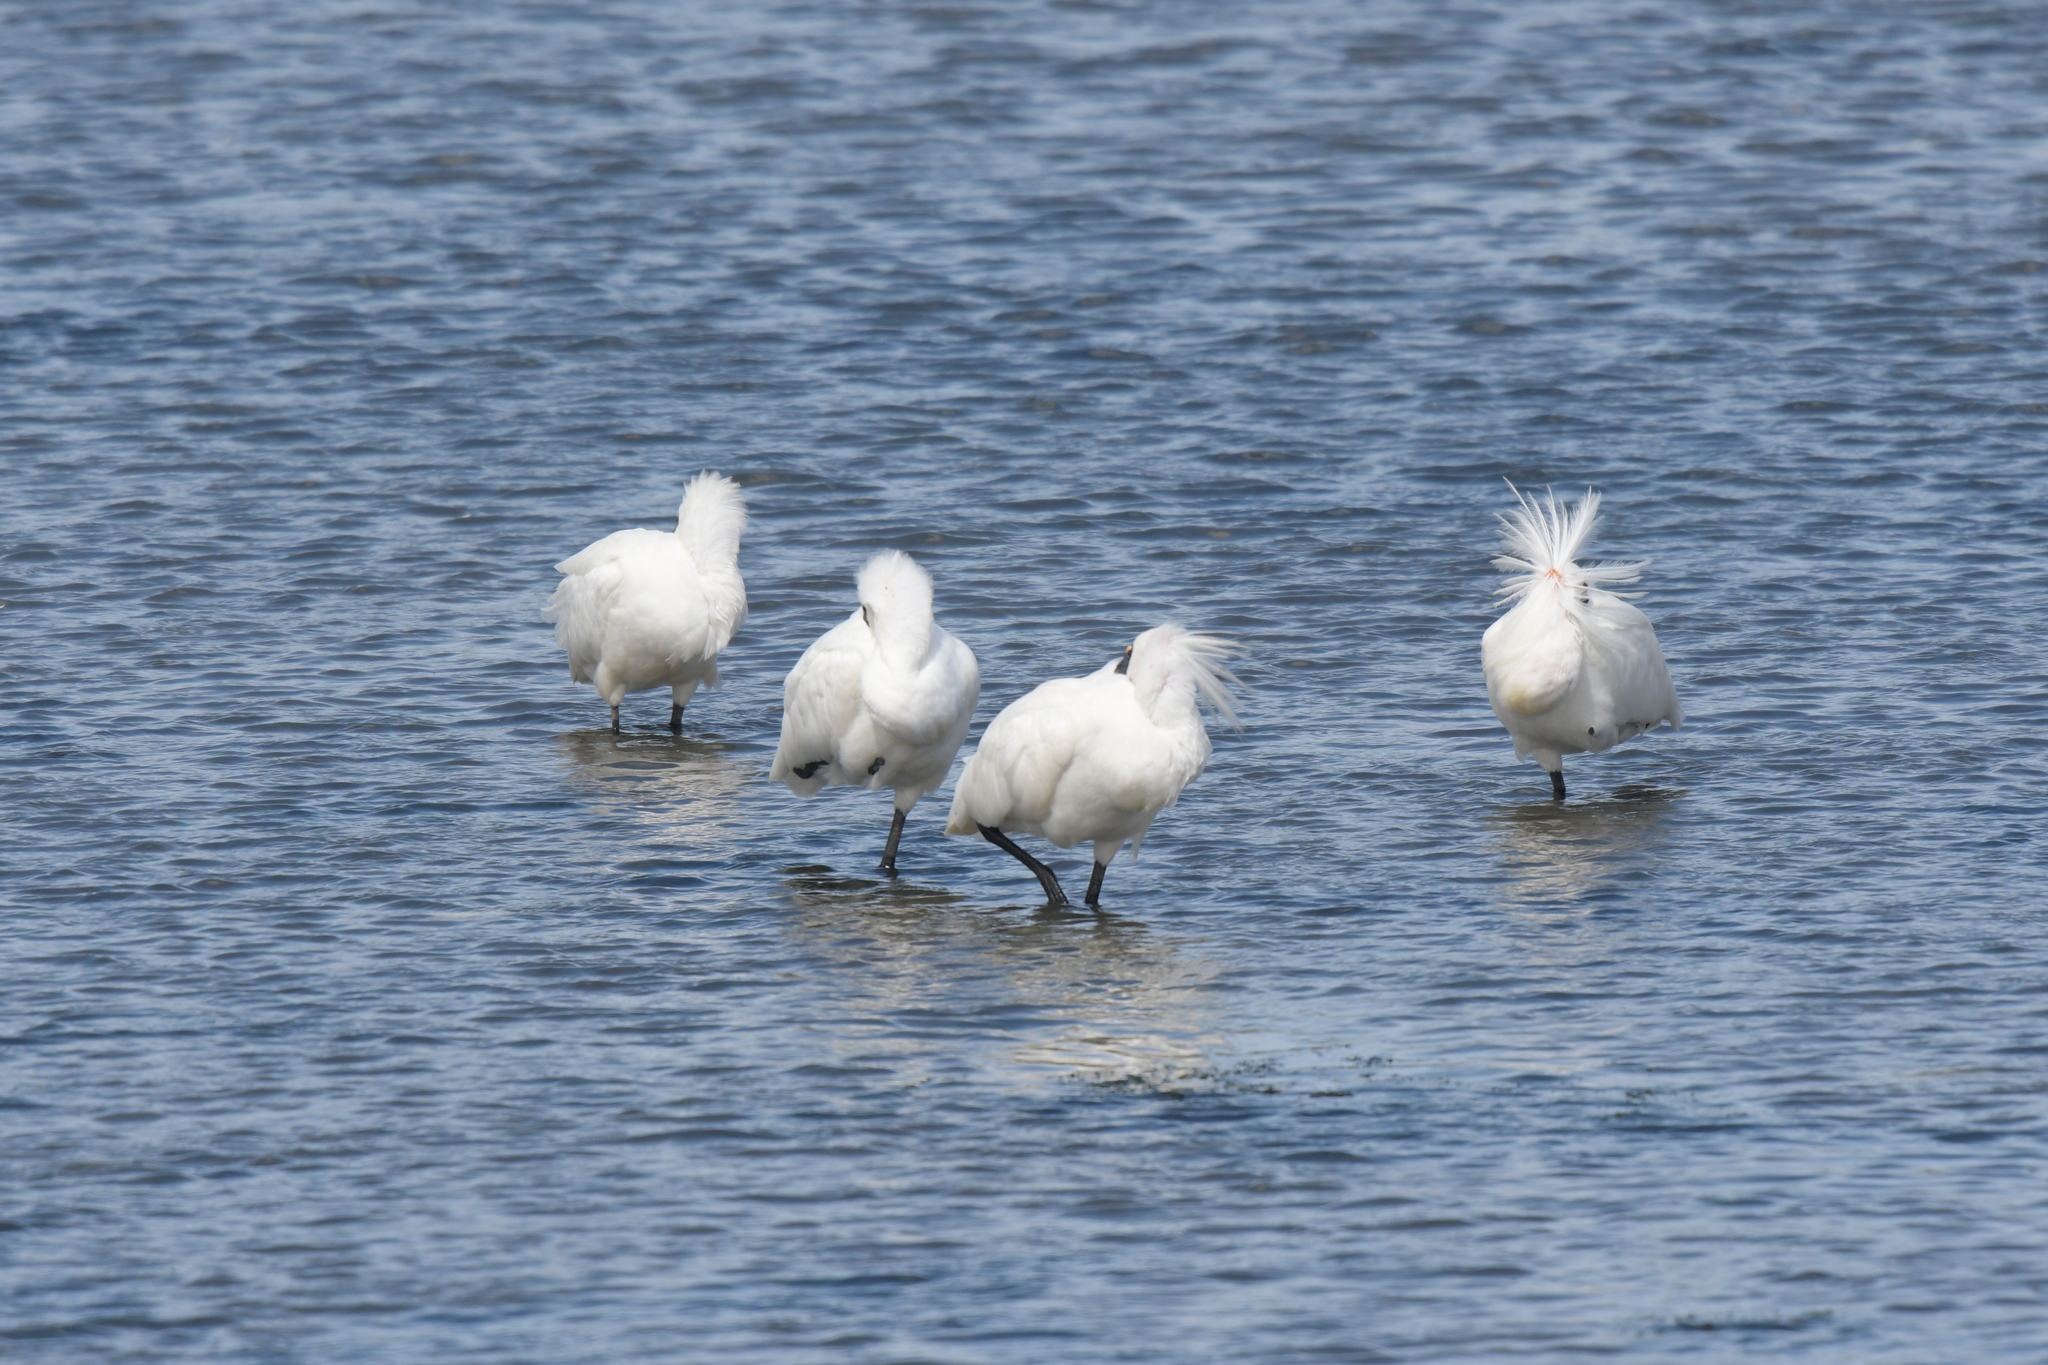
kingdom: Animalia
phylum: Chordata
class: Aves
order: Pelecaniformes
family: Threskiornithidae
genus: Platalea
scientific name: Platalea regia
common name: Royal spoonbill
